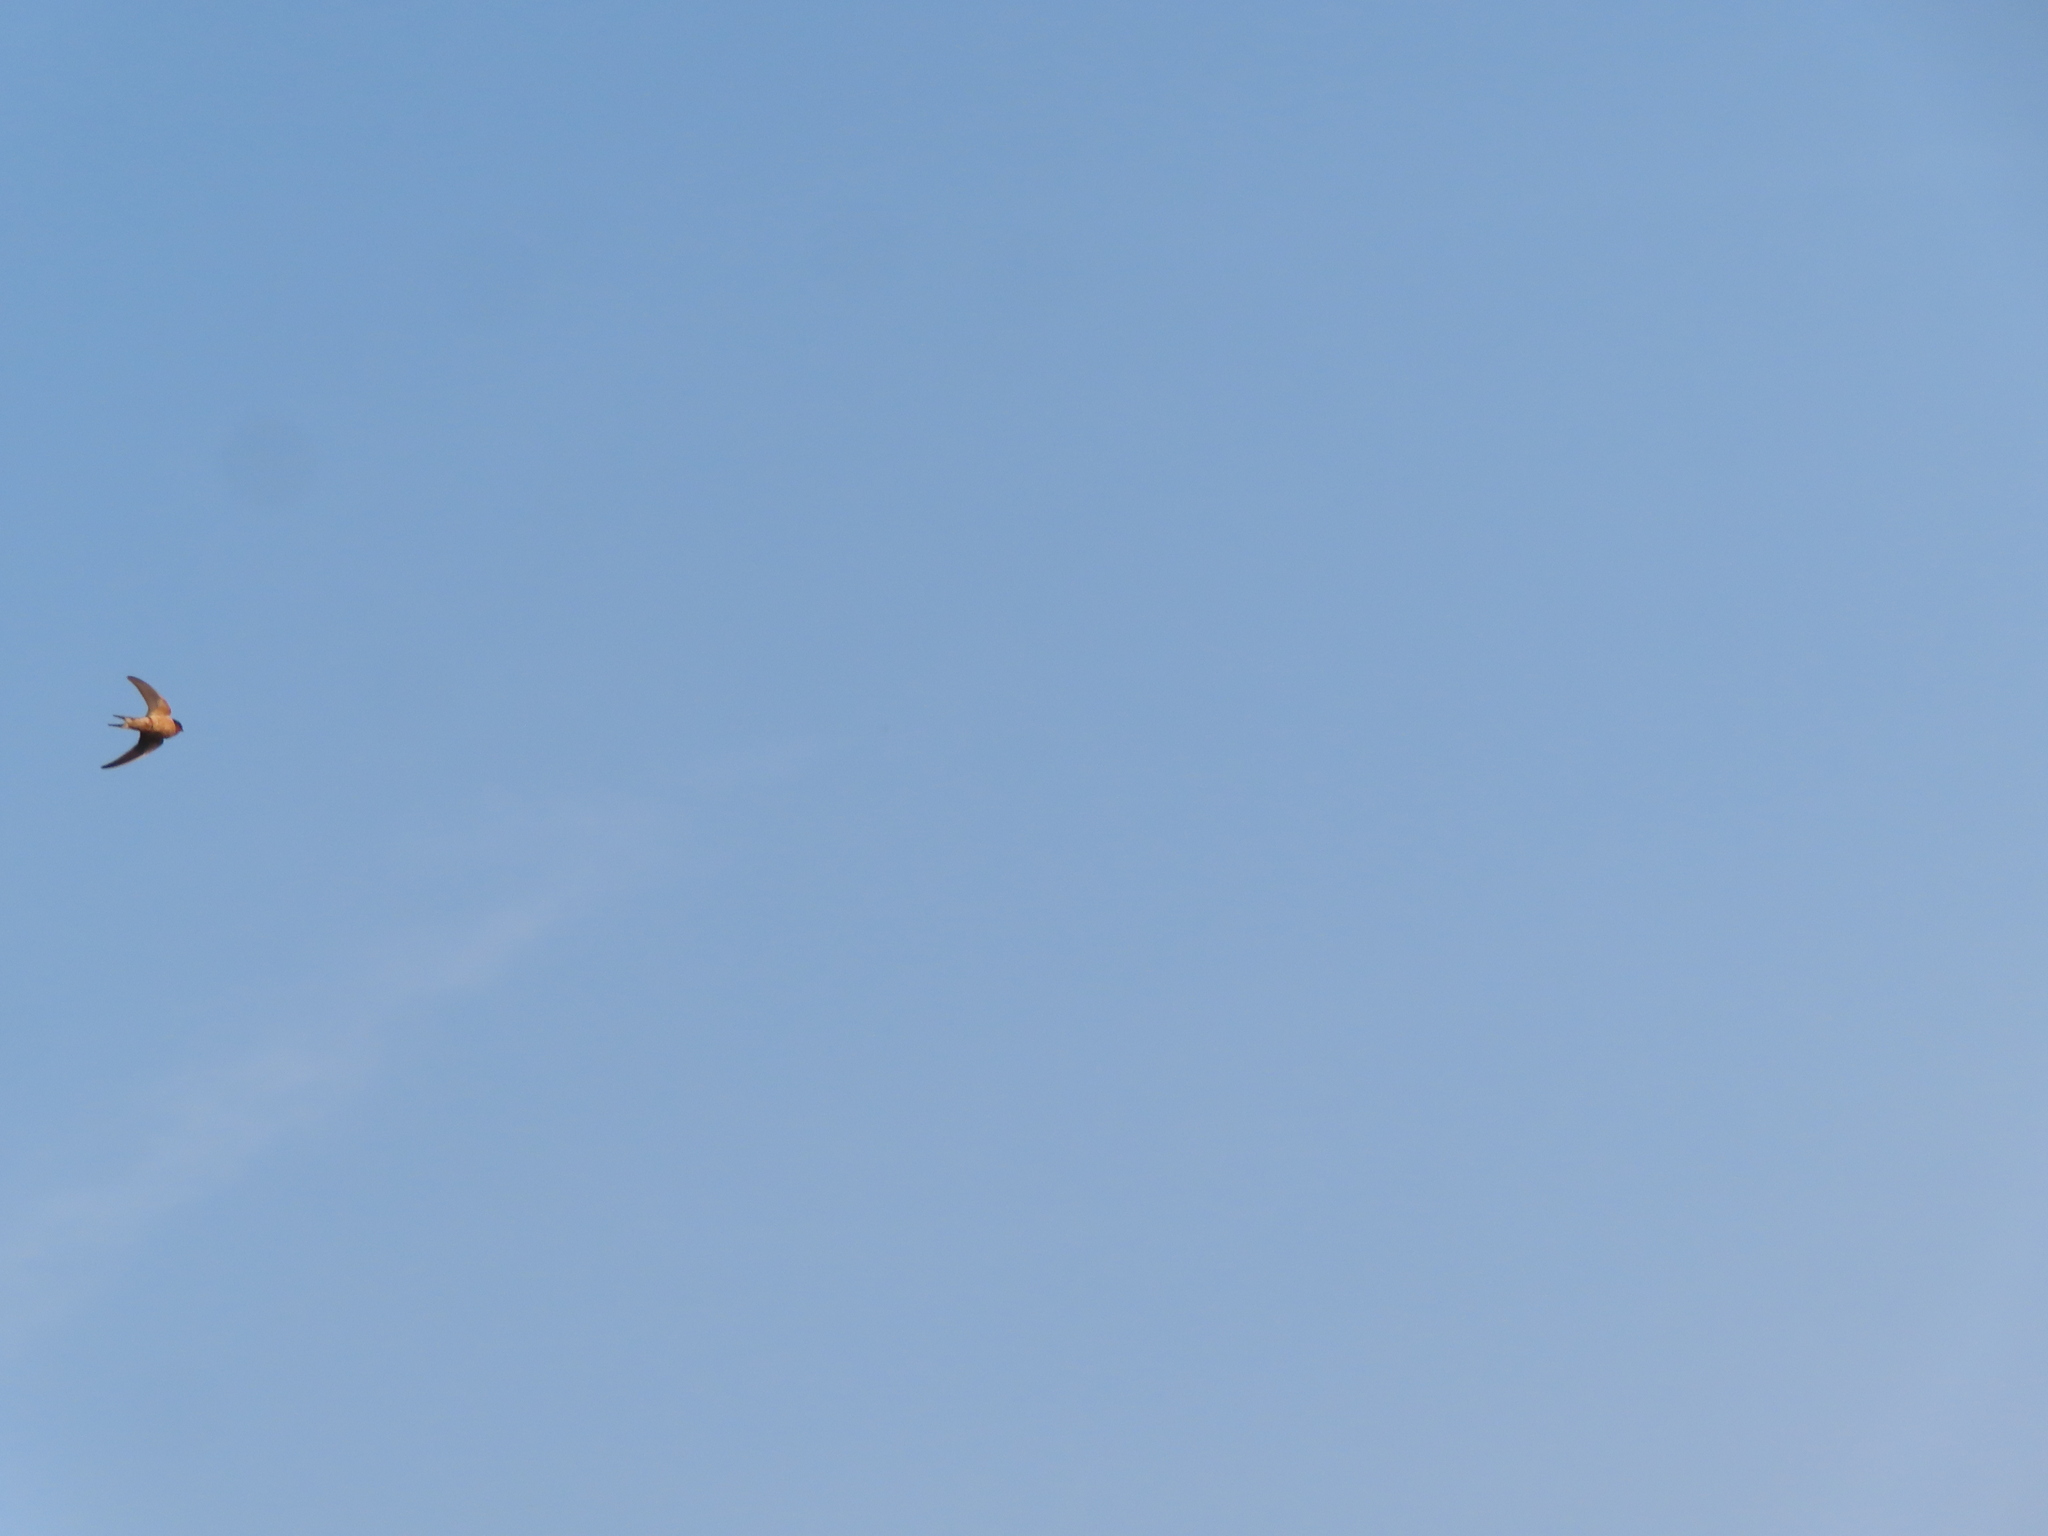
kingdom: Animalia
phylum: Chordata
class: Aves
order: Passeriformes
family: Hirundinidae
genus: Hirundo
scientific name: Hirundo rustica
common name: Barn swallow
